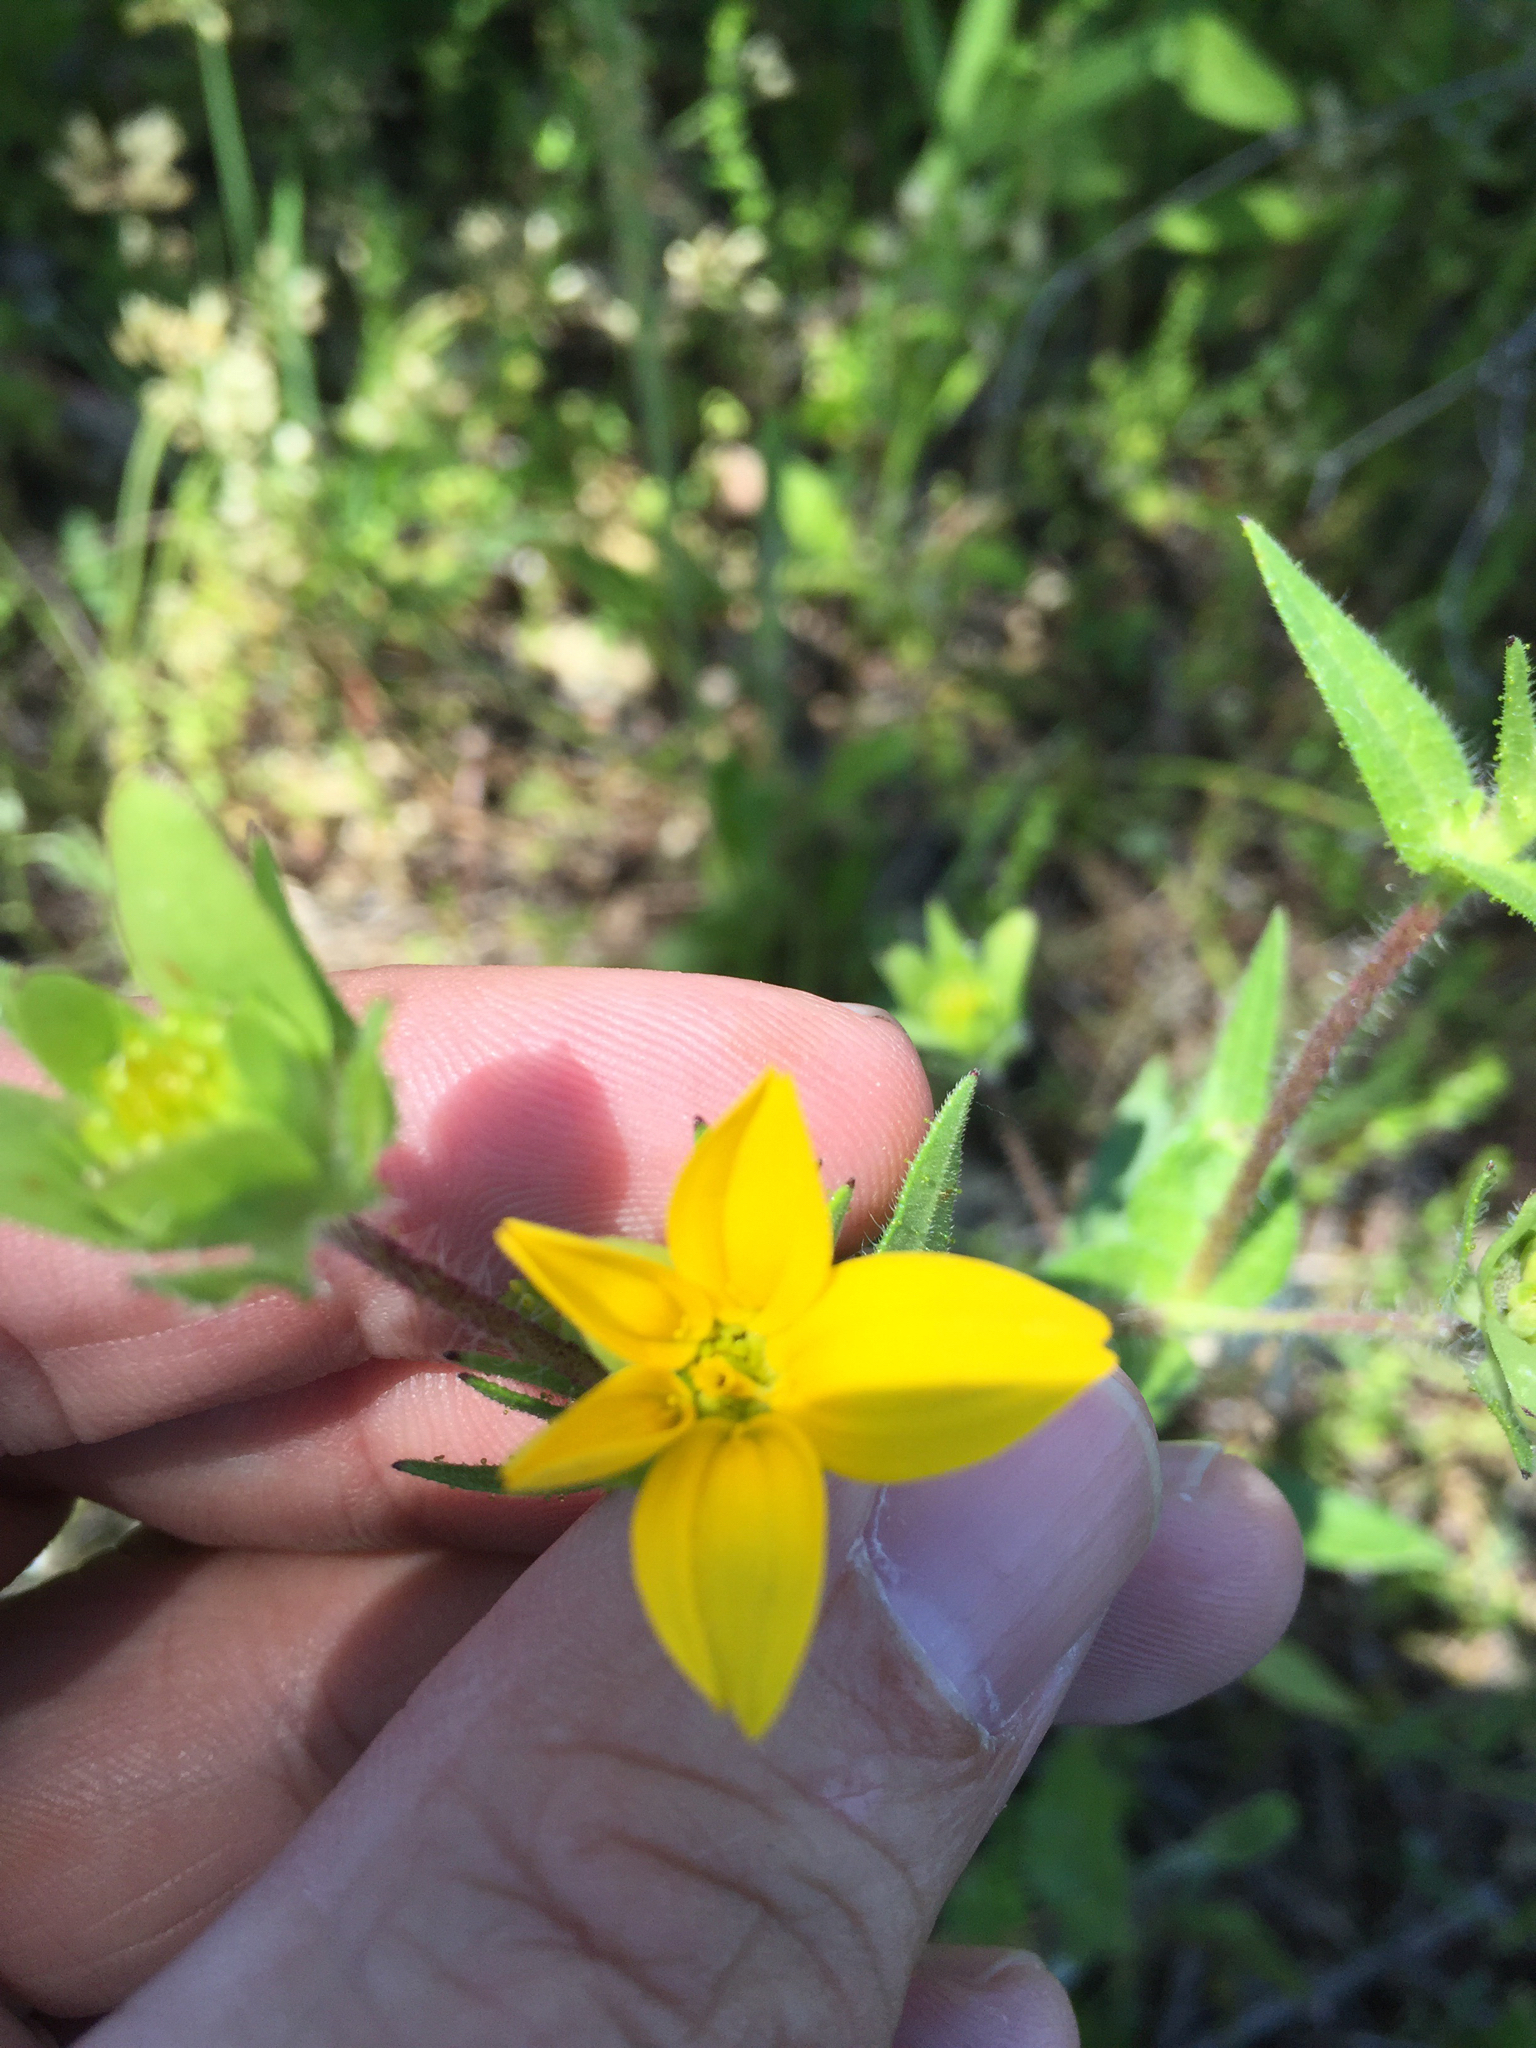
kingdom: Plantae
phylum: Tracheophyta
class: Magnoliopsida
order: Asterales
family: Asteraceae
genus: Lindheimera
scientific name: Lindheimera texana
